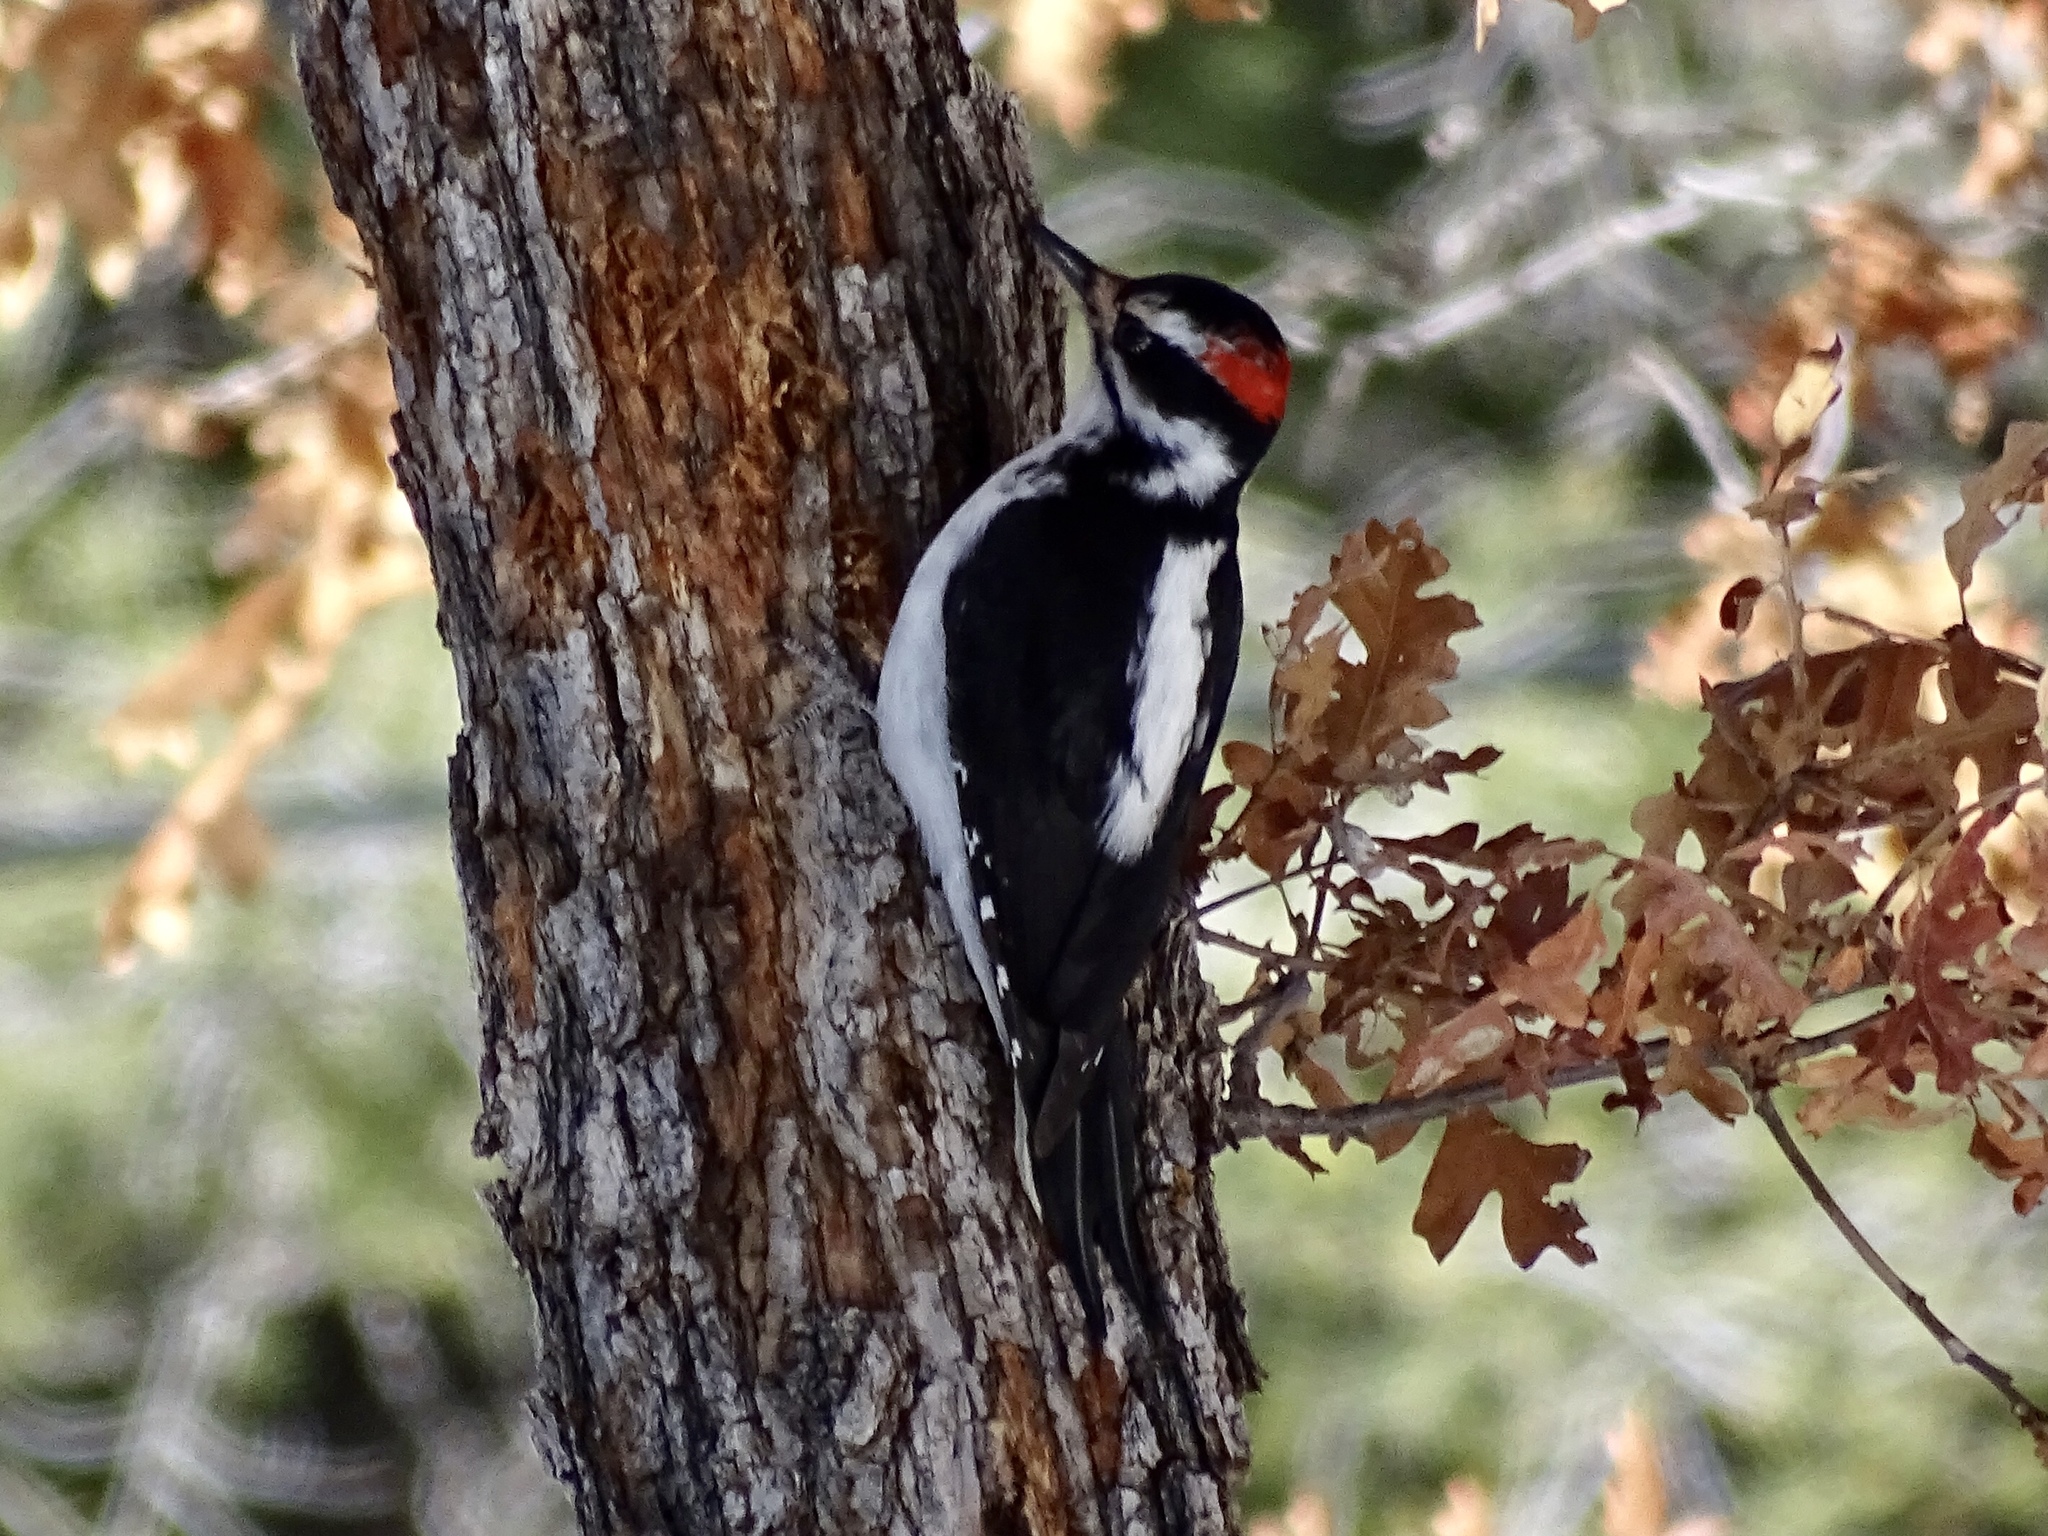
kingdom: Animalia
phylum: Chordata
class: Aves
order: Piciformes
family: Picidae
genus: Leuconotopicus
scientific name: Leuconotopicus villosus
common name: Hairy woodpecker
